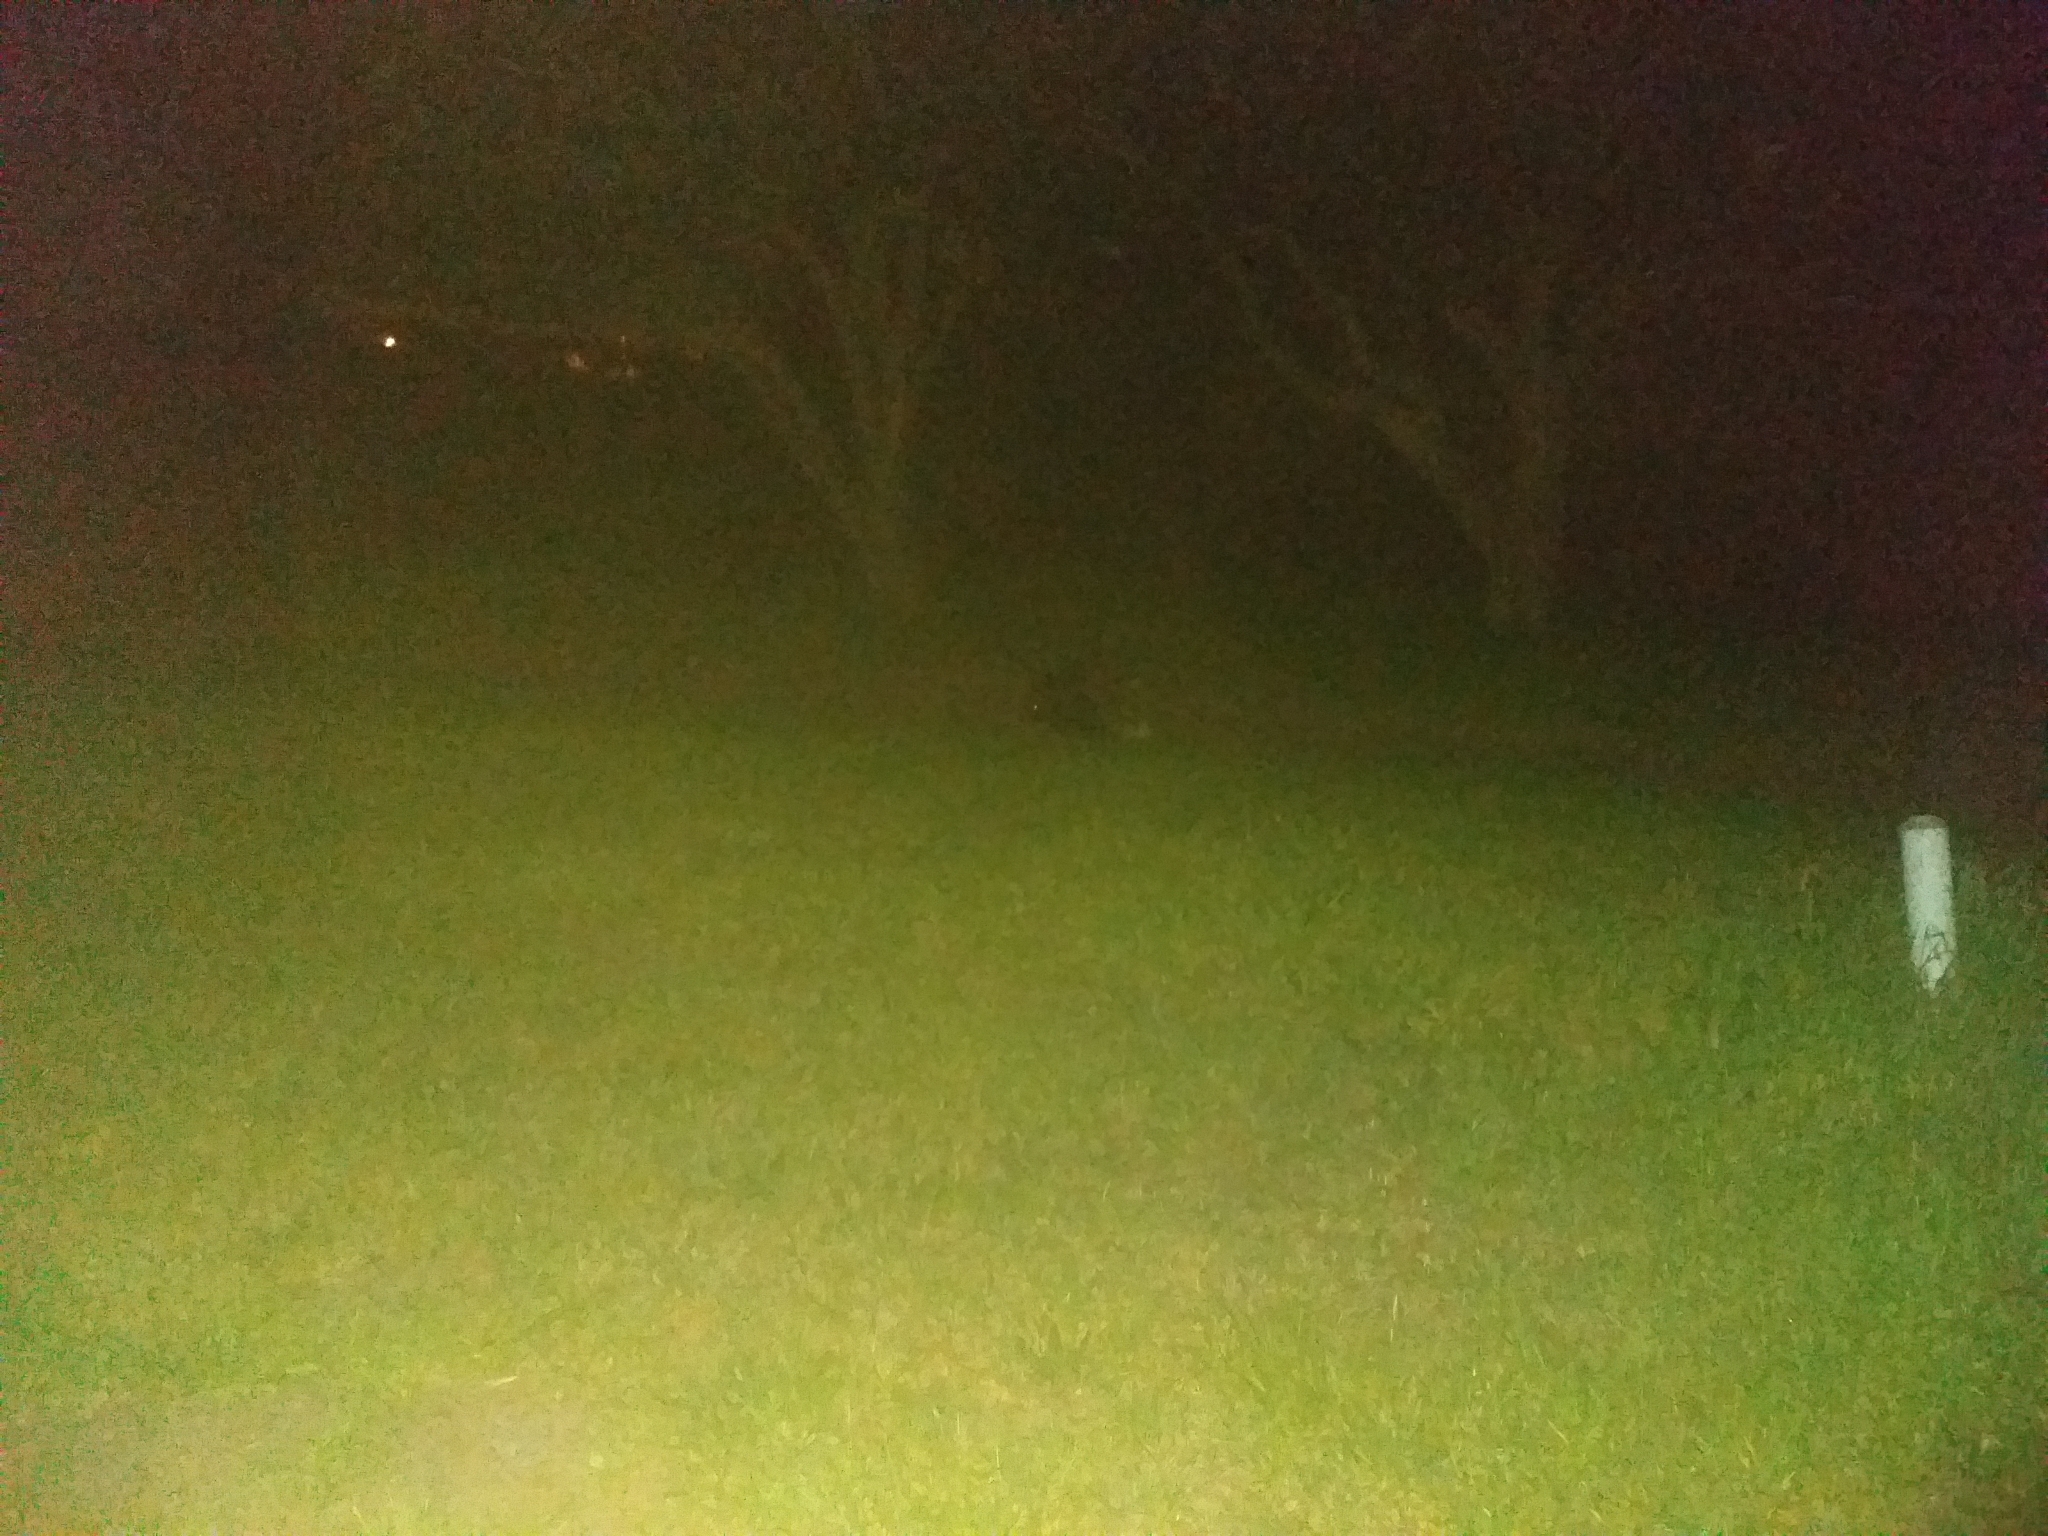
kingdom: Animalia
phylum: Chordata
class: Mammalia
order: Rodentia
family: Hystricidae
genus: Hystrix
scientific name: Hystrix africaeaustralis
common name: Cape porcupine
